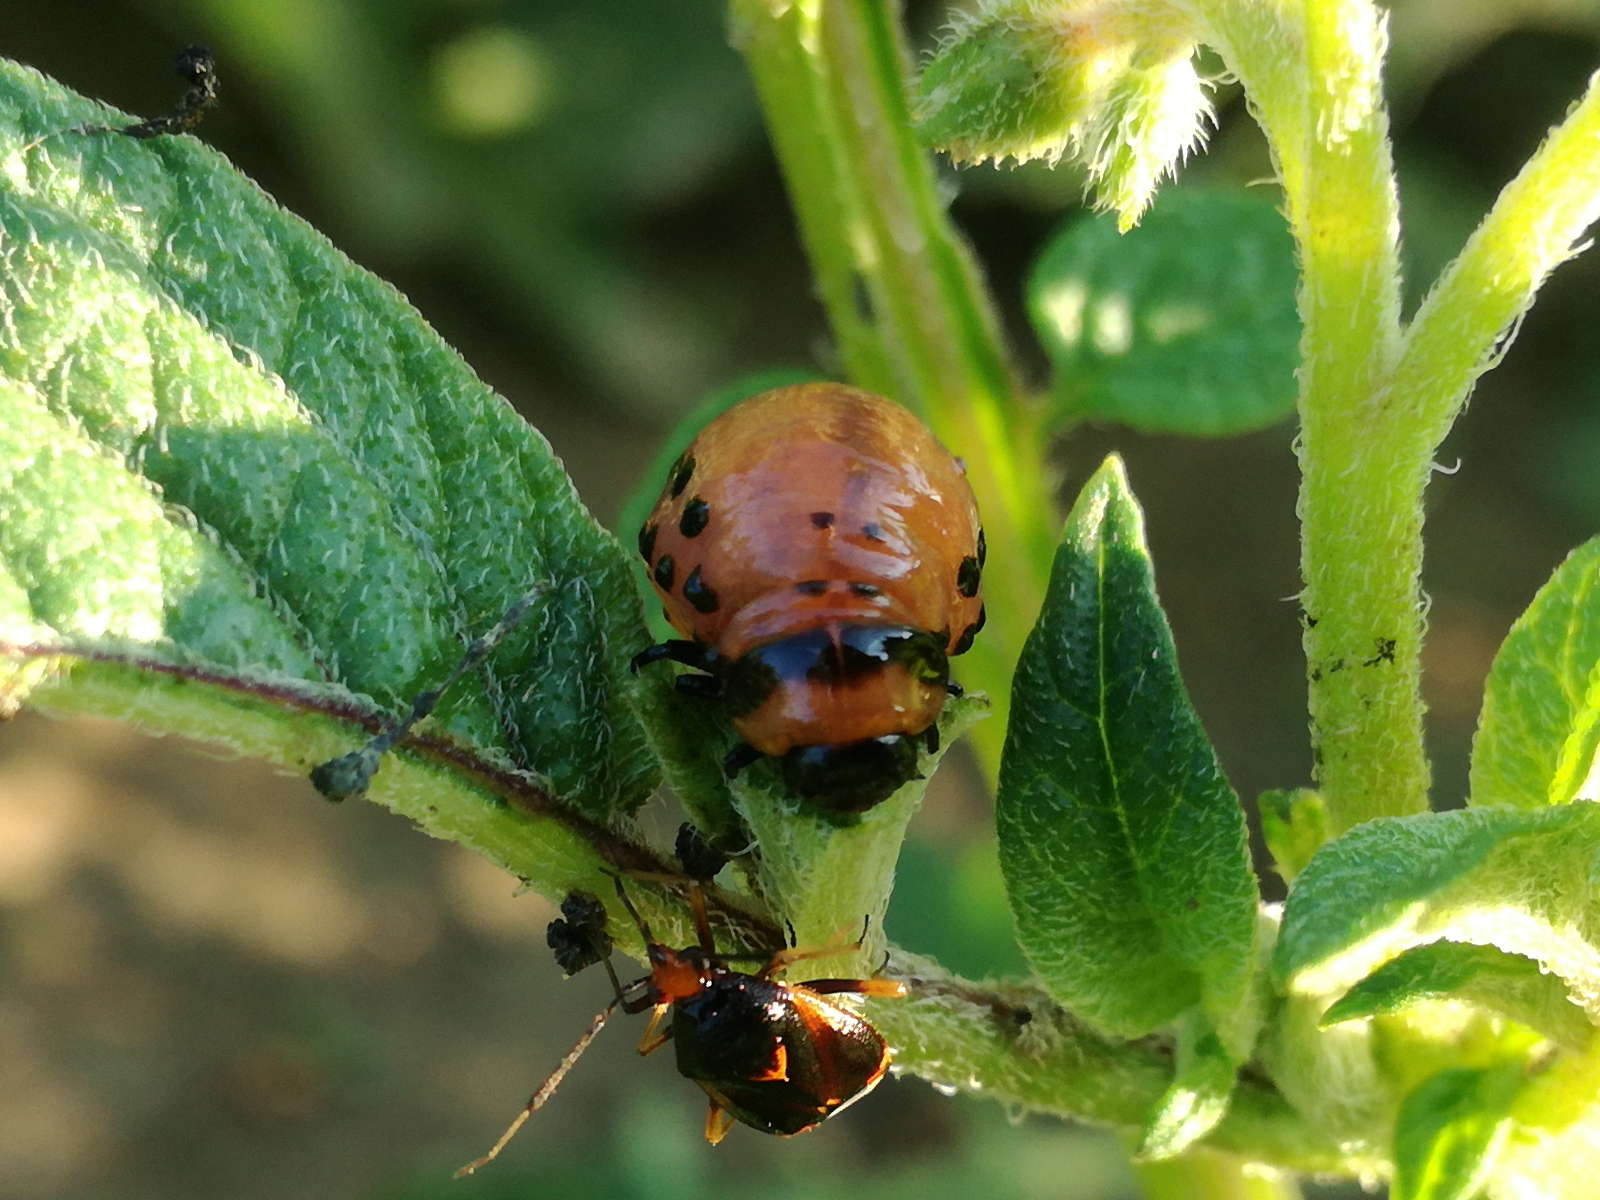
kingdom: Animalia
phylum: Arthropoda
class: Insecta
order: Coleoptera
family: Chrysomelidae
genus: Leptinotarsa
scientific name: Leptinotarsa decemlineata
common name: Colorado potato beetle
